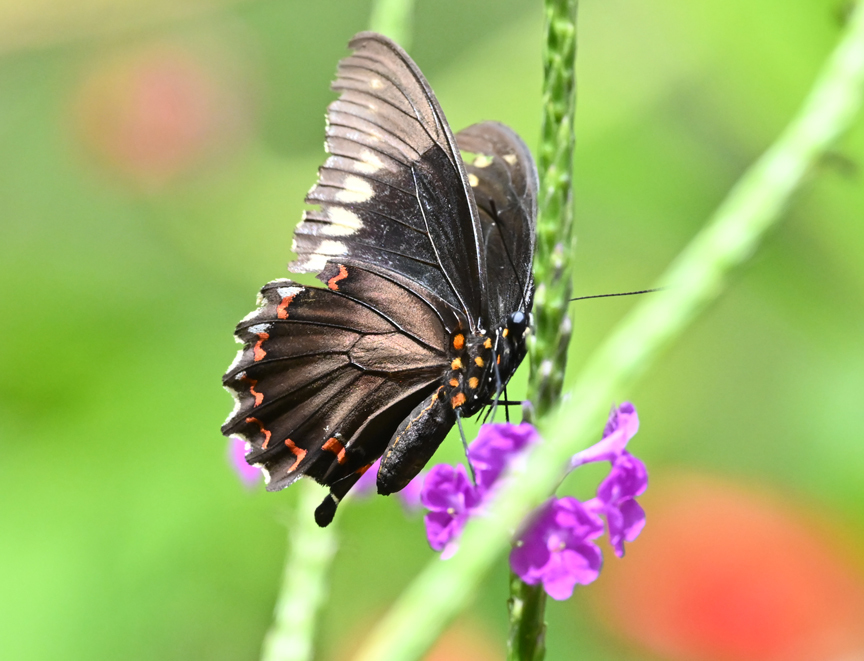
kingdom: Animalia
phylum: Arthropoda
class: Insecta
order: Lepidoptera
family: Papilionidae
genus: Battus
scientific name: Battus polydamas
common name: Polydamas swallowtail
